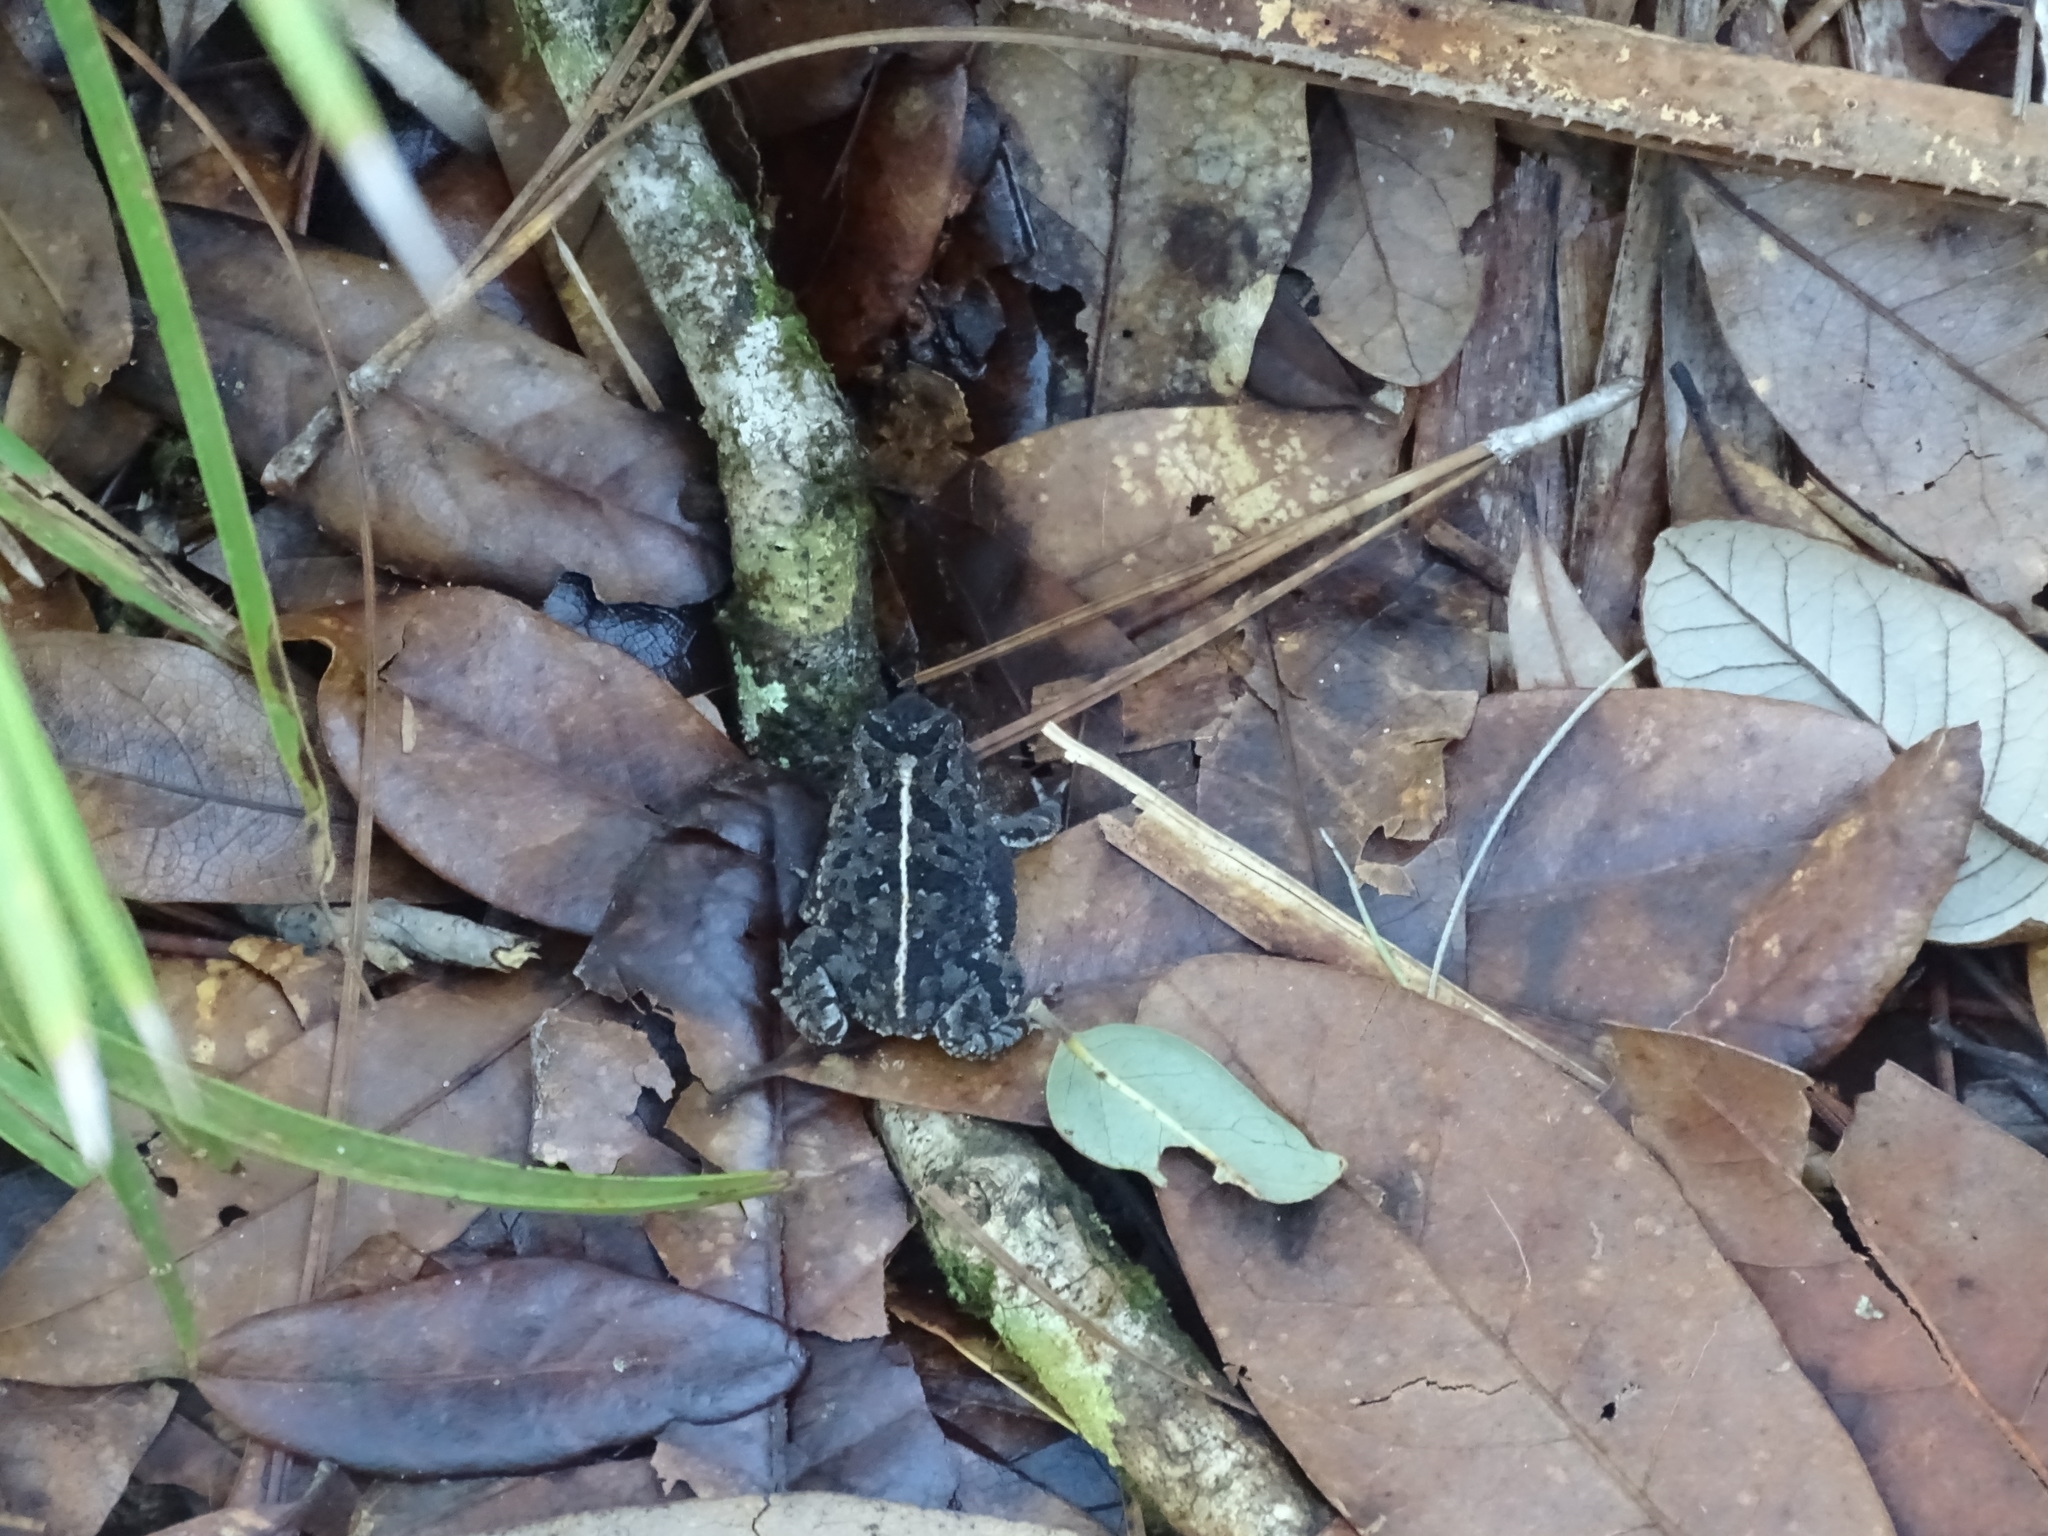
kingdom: Animalia
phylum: Chordata
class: Amphibia
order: Anura
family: Bufonidae
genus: Anaxyrus
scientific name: Anaxyrus quercicus
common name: Oak toad
